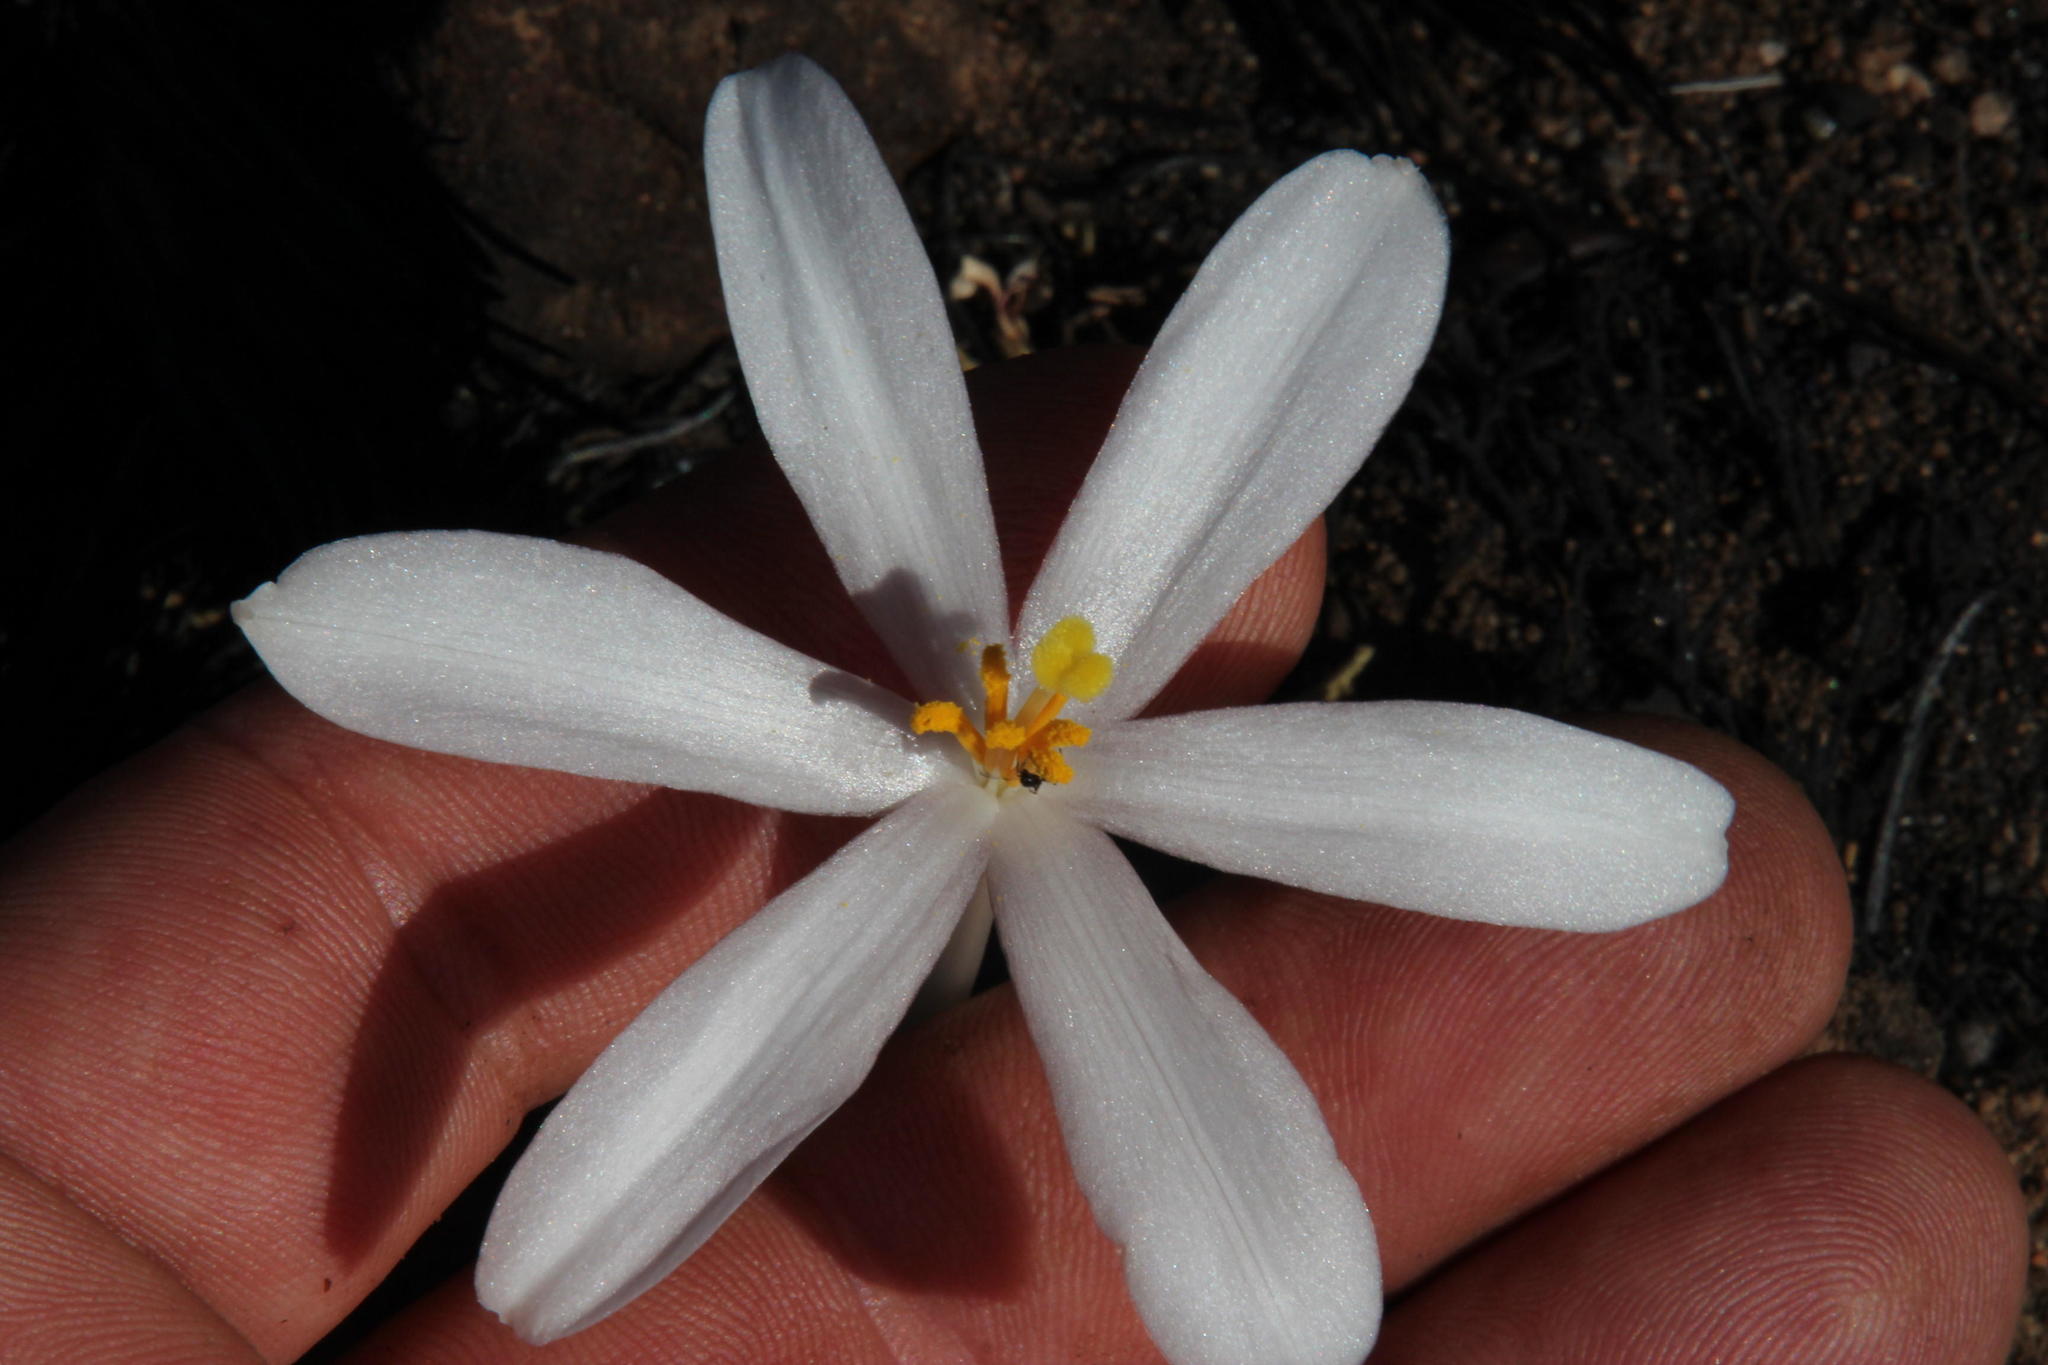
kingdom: Animalia
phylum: Arthropoda
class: Insecta
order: Hymenoptera
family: Formicidae
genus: Lepisiota
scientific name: Lepisiota capensis
